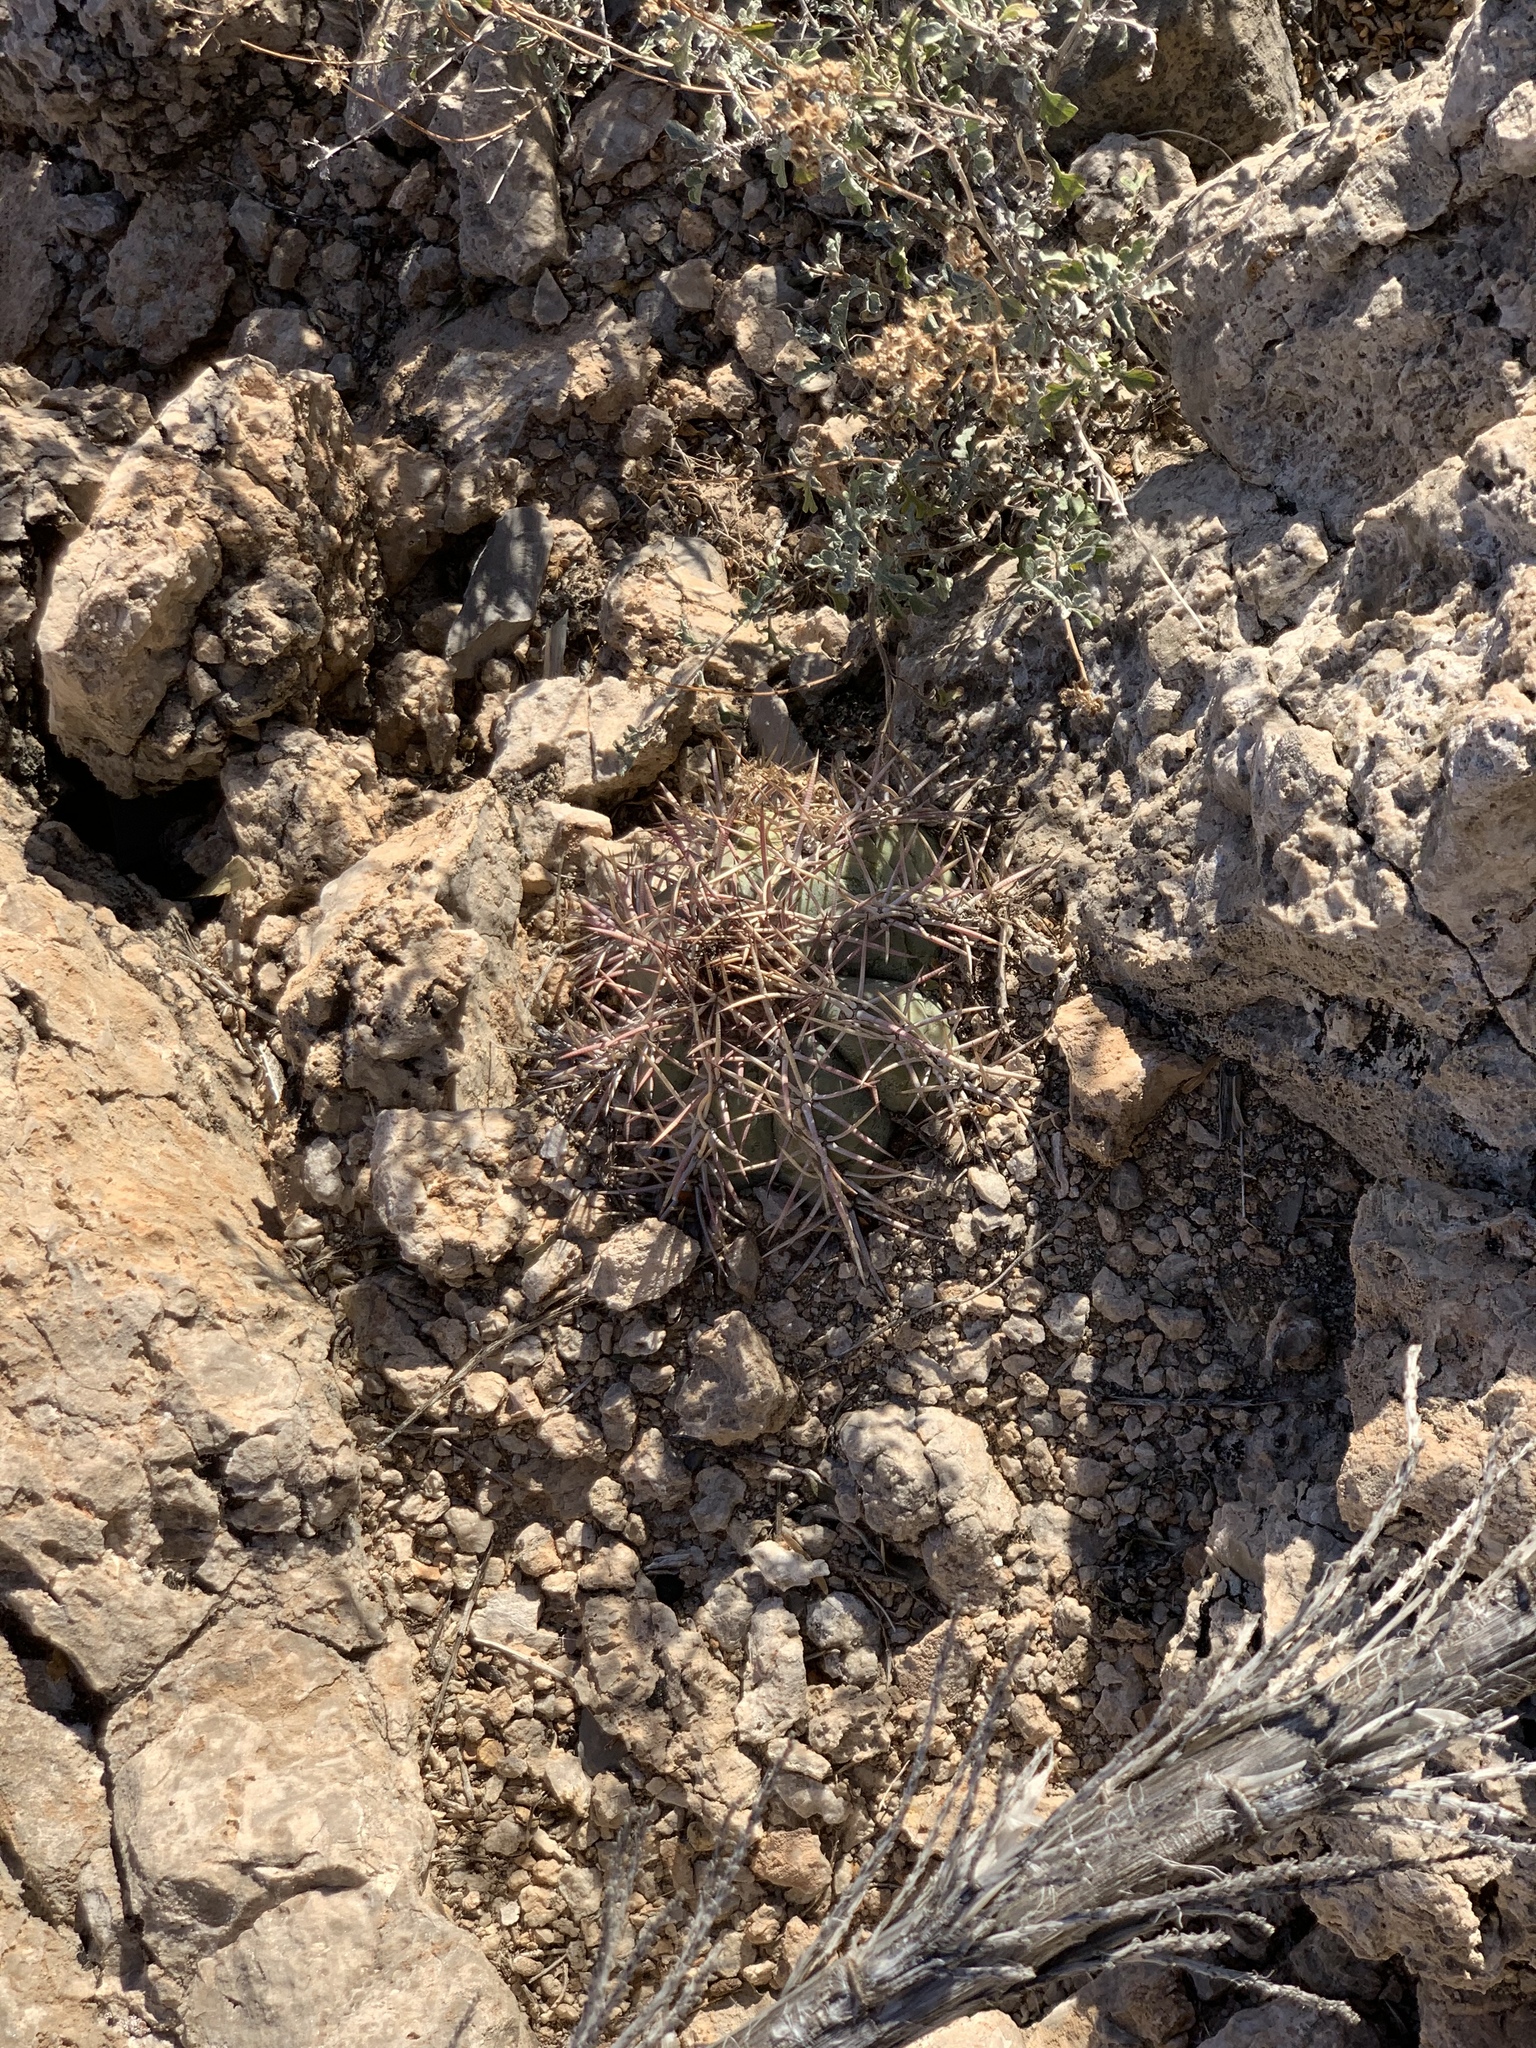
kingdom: Plantae
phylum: Tracheophyta
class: Magnoliopsida
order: Caryophyllales
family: Cactaceae
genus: Echinocactus
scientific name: Echinocactus horizonthalonius
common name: Devilshead
